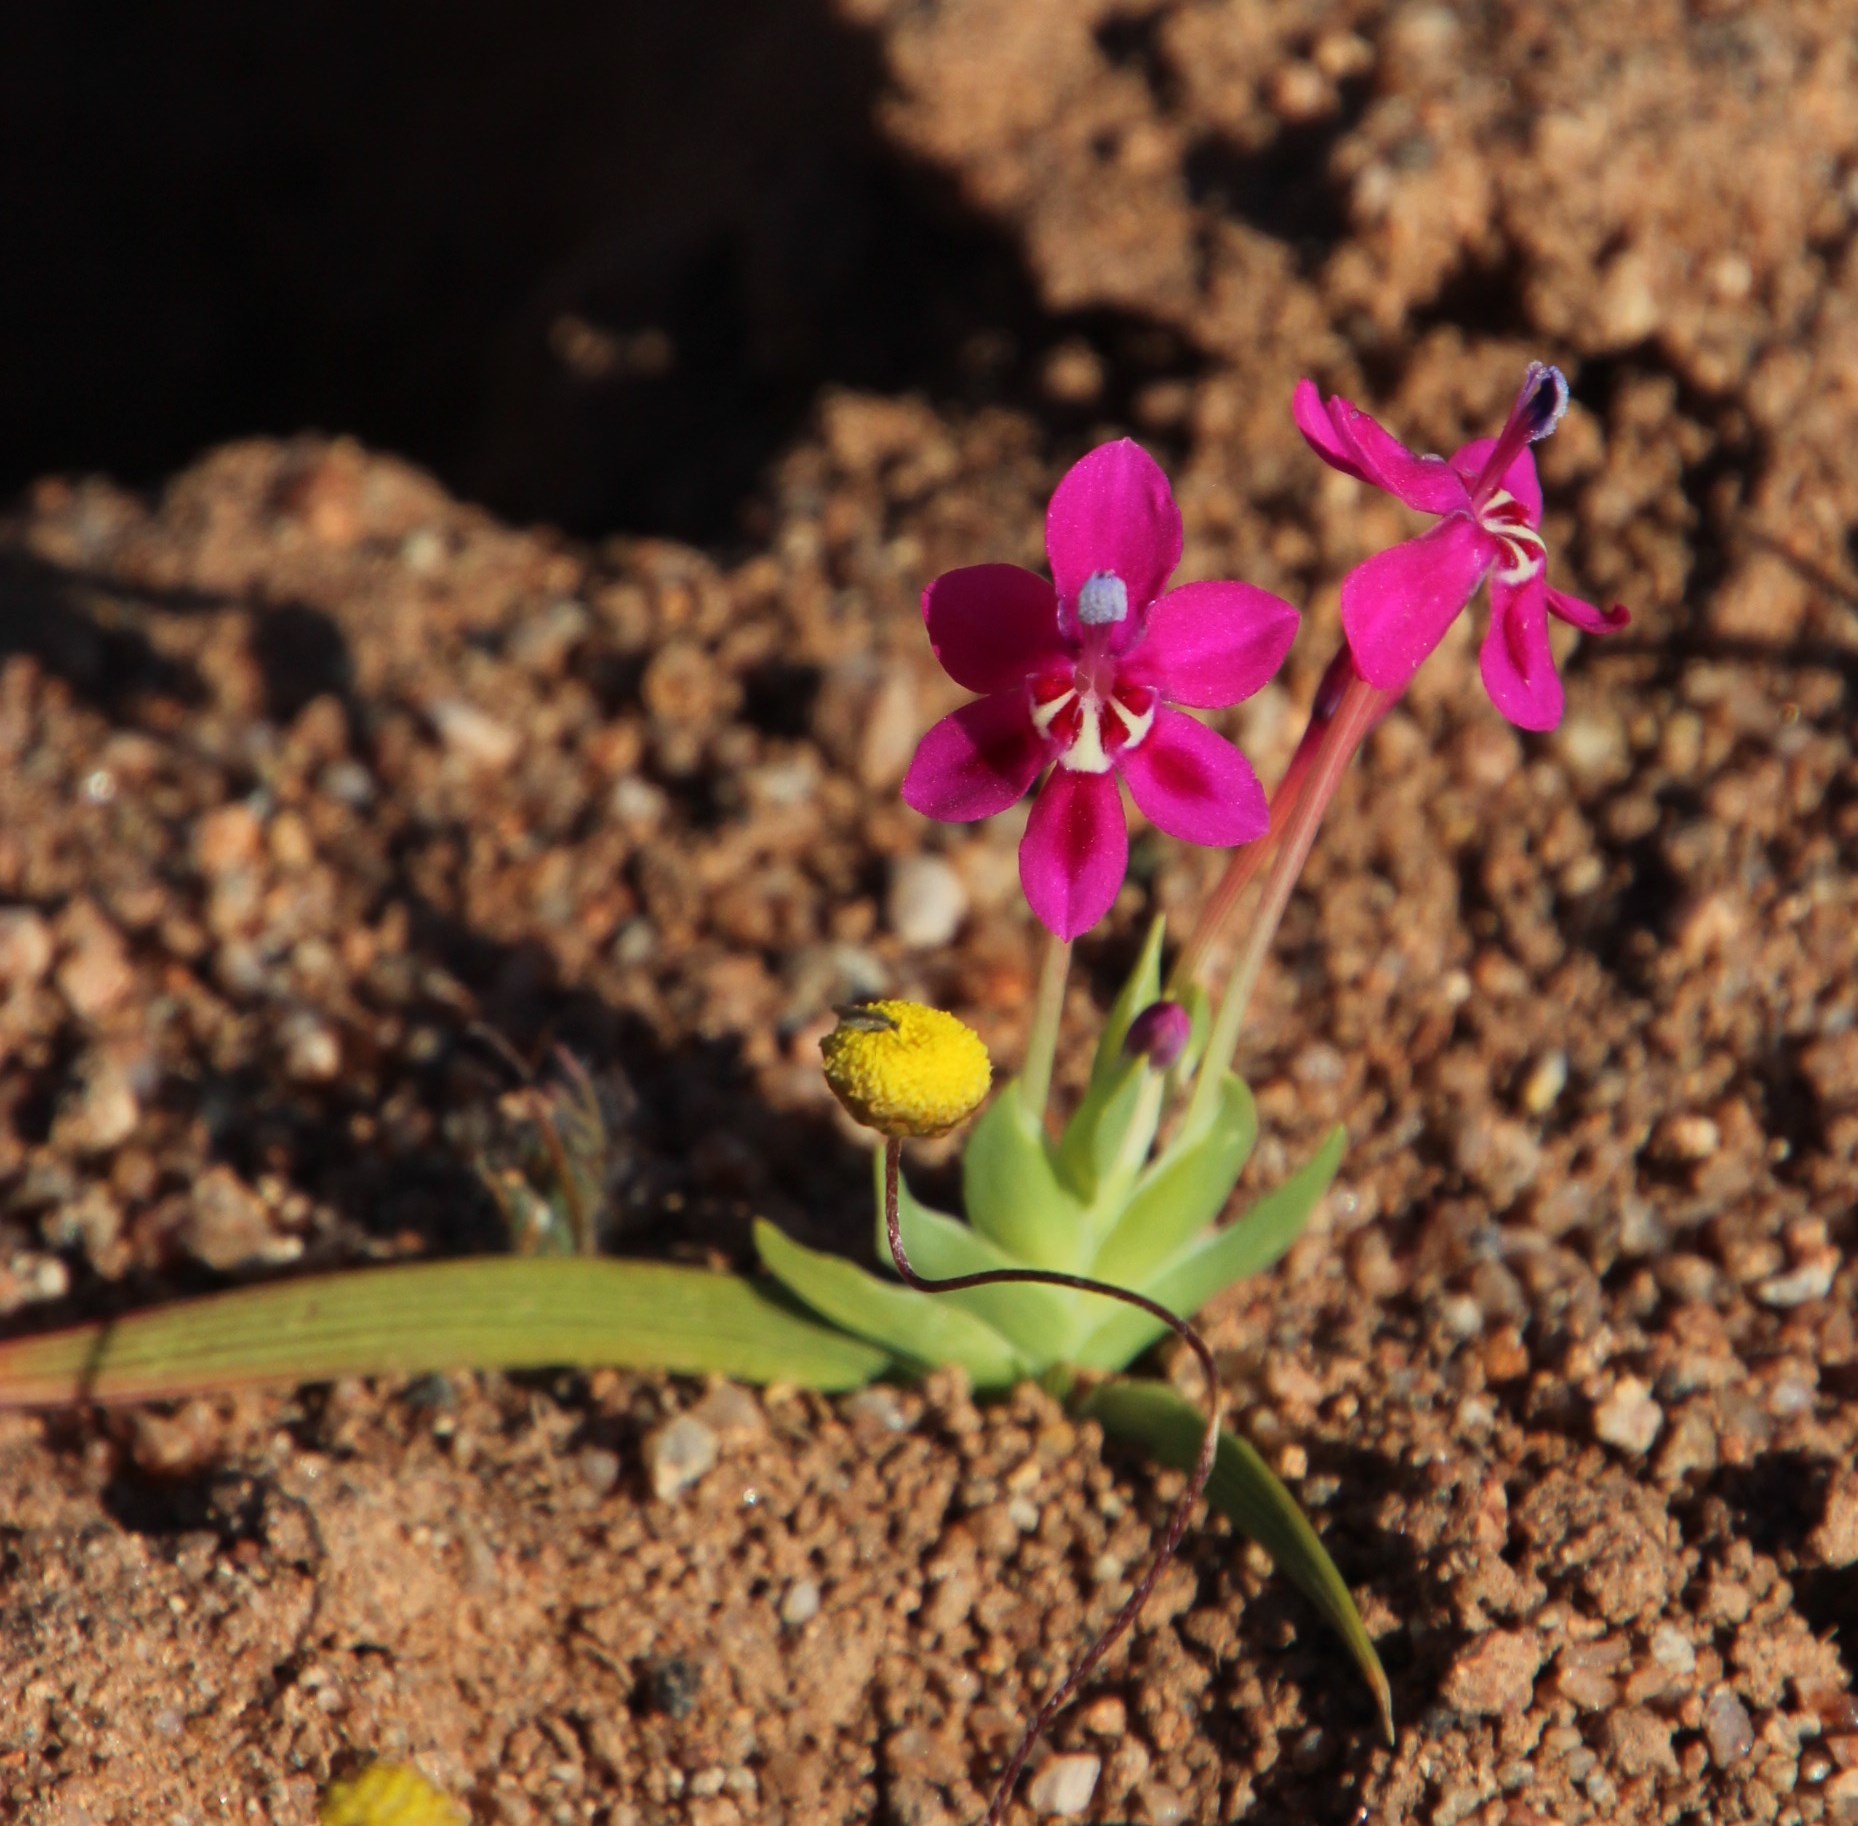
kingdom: Plantae
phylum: Tracheophyta
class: Liliopsida
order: Asparagales
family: Iridaceae
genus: Lapeirousia
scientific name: Lapeirousia silenoides
